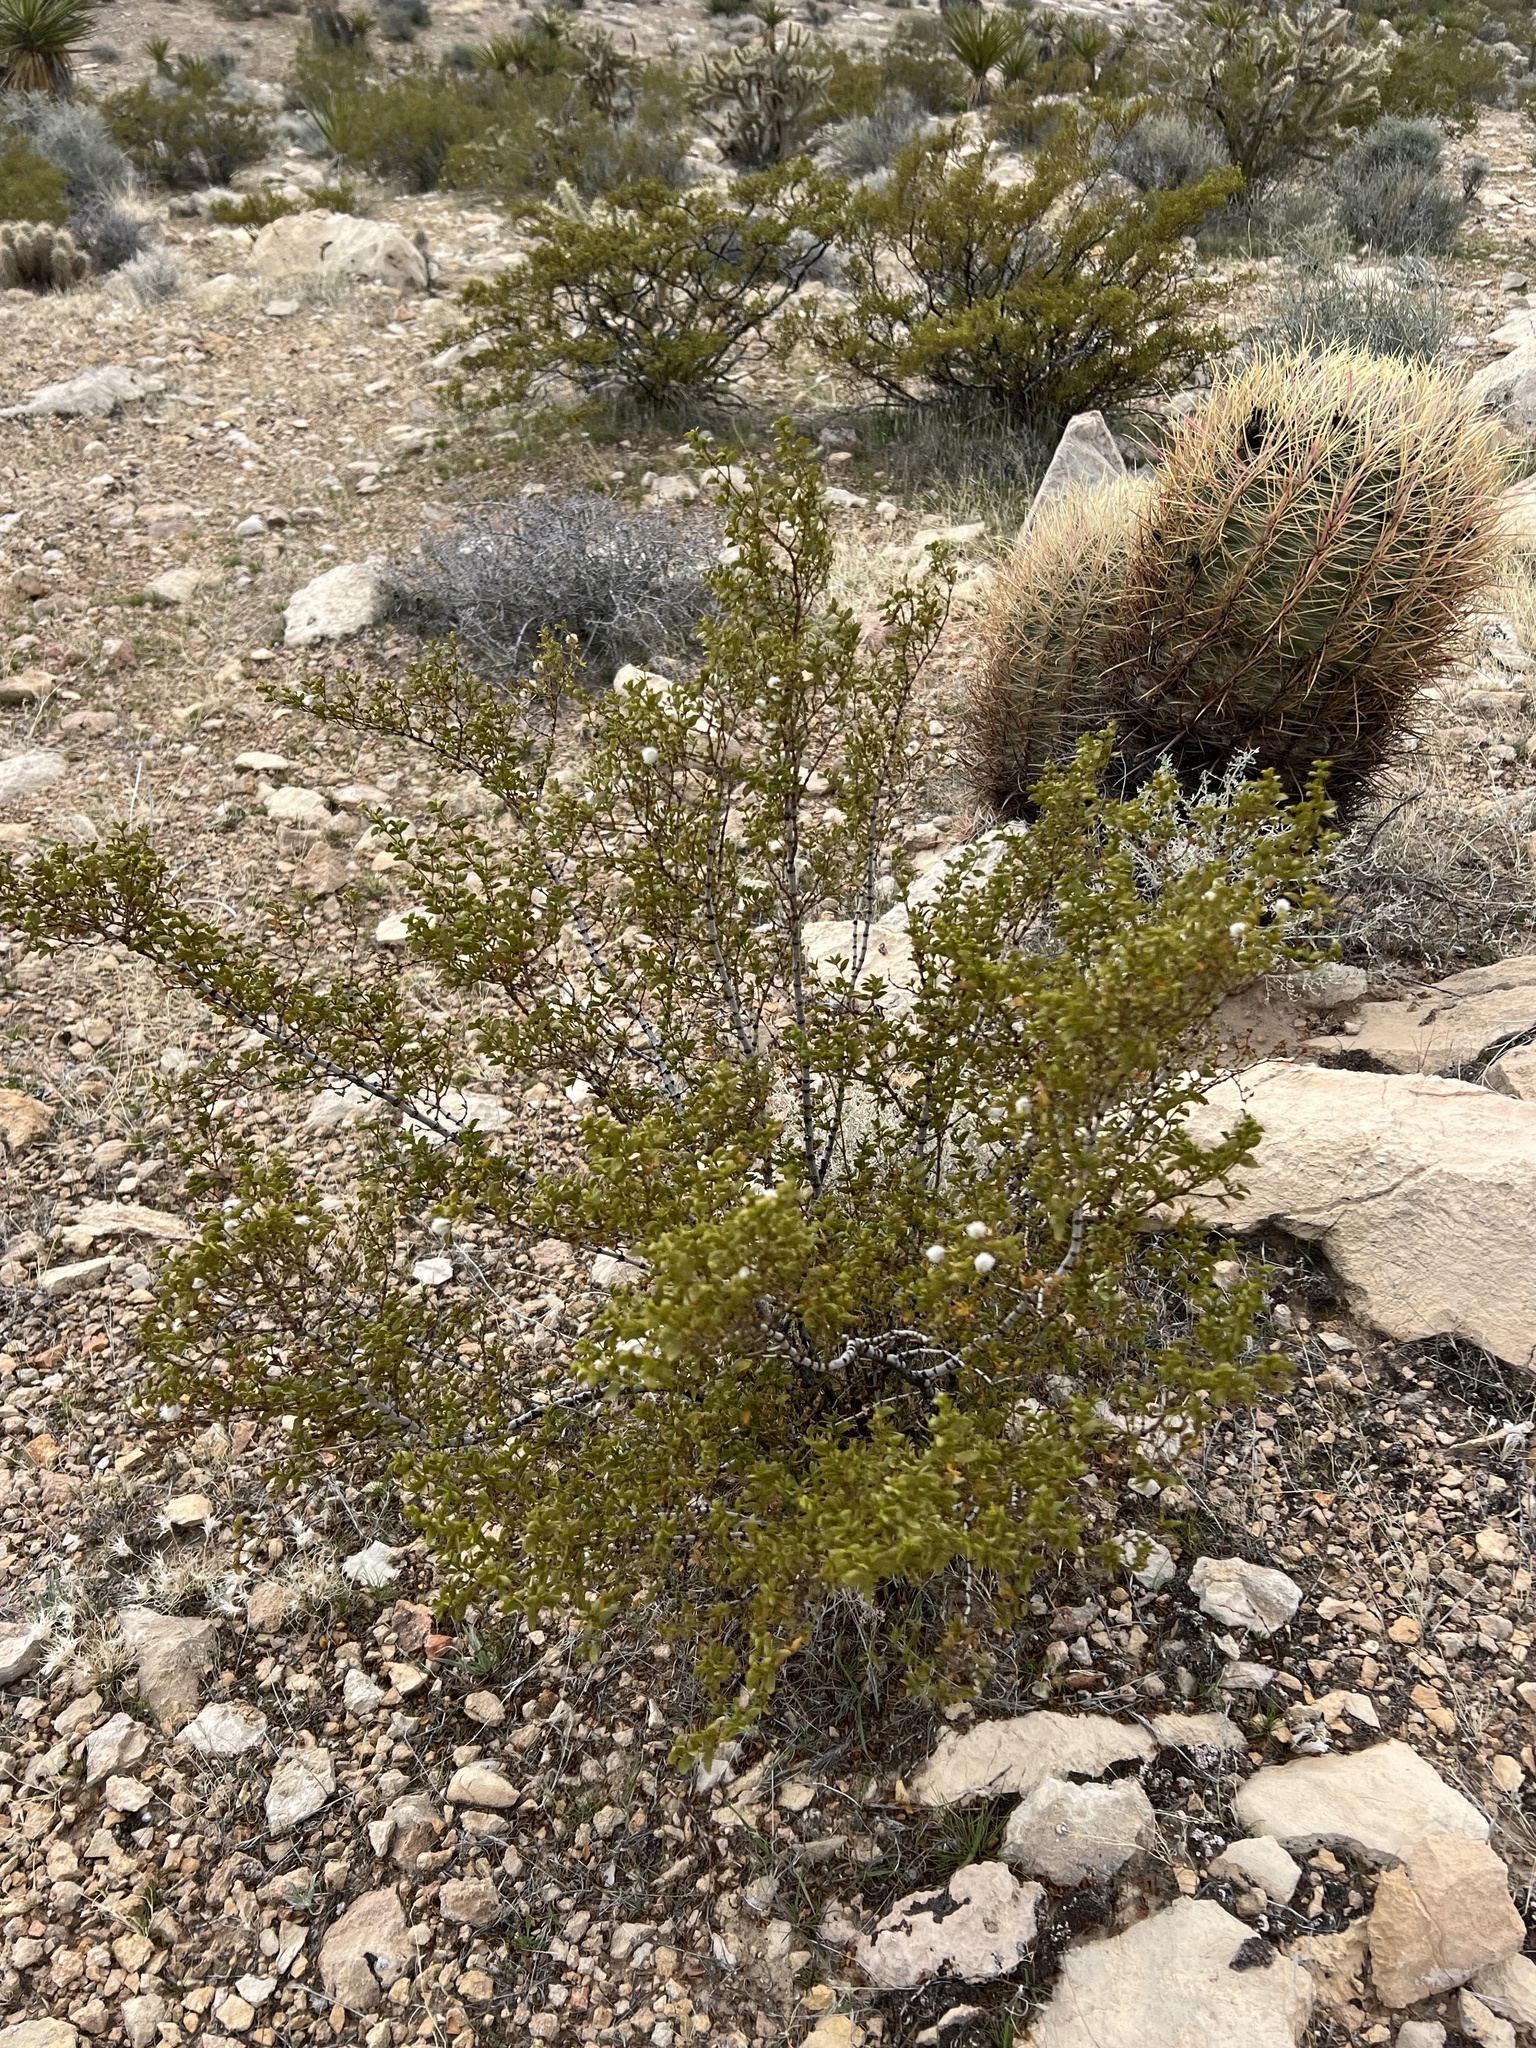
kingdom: Plantae
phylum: Tracheophyta
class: Magnoliopsida
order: Zygophyllales
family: Zygophyllaceae
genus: Larrea
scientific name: Larrea tridentata
